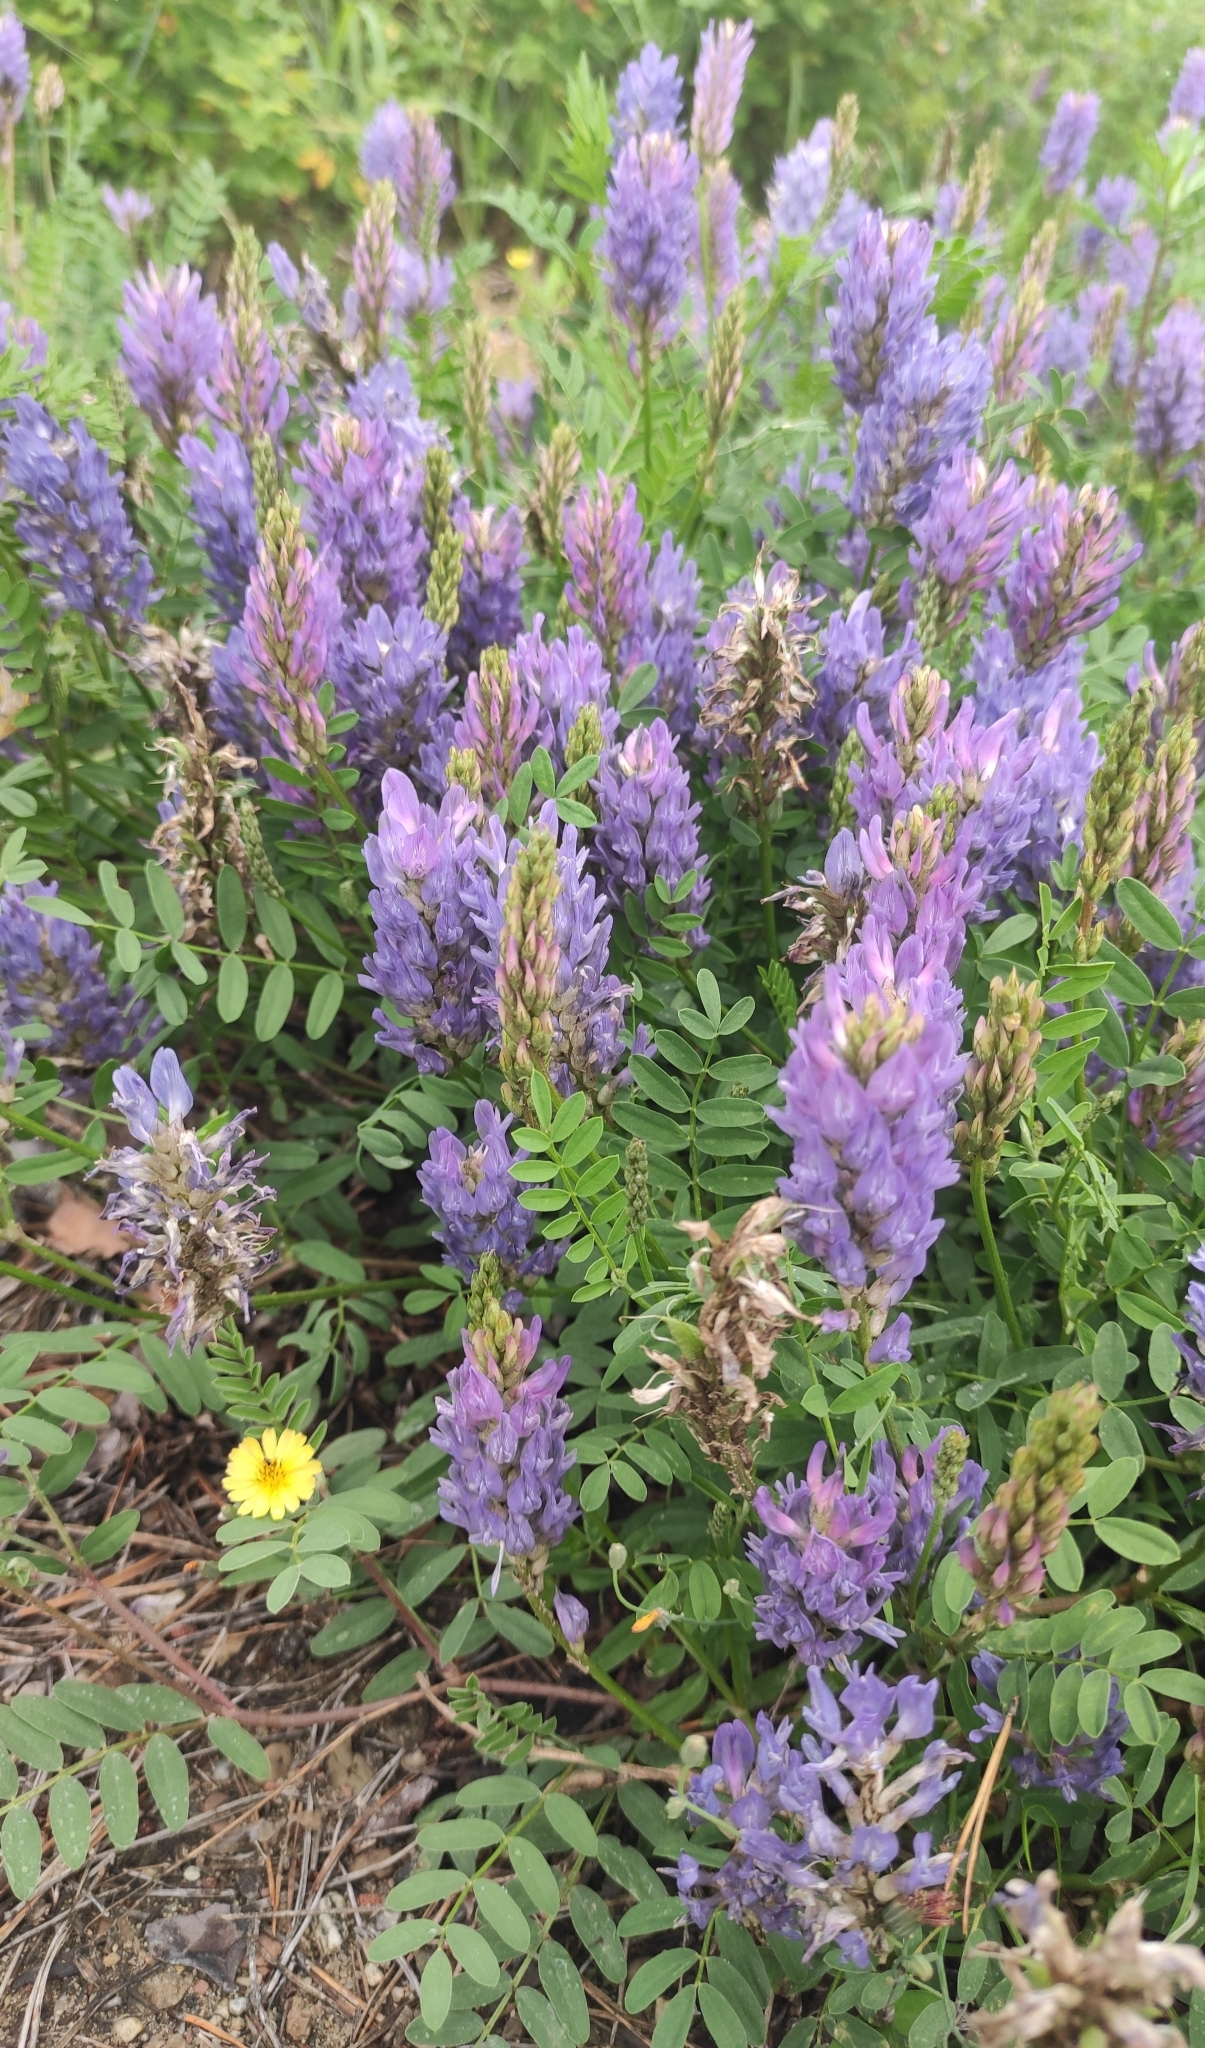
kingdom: Plantae
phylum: Tracheophyta
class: Magnoliopsida
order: Fabales
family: Fabaceae
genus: Astragalus
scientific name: Astragalus laxmannii
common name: Laxmann's milk-vetch
